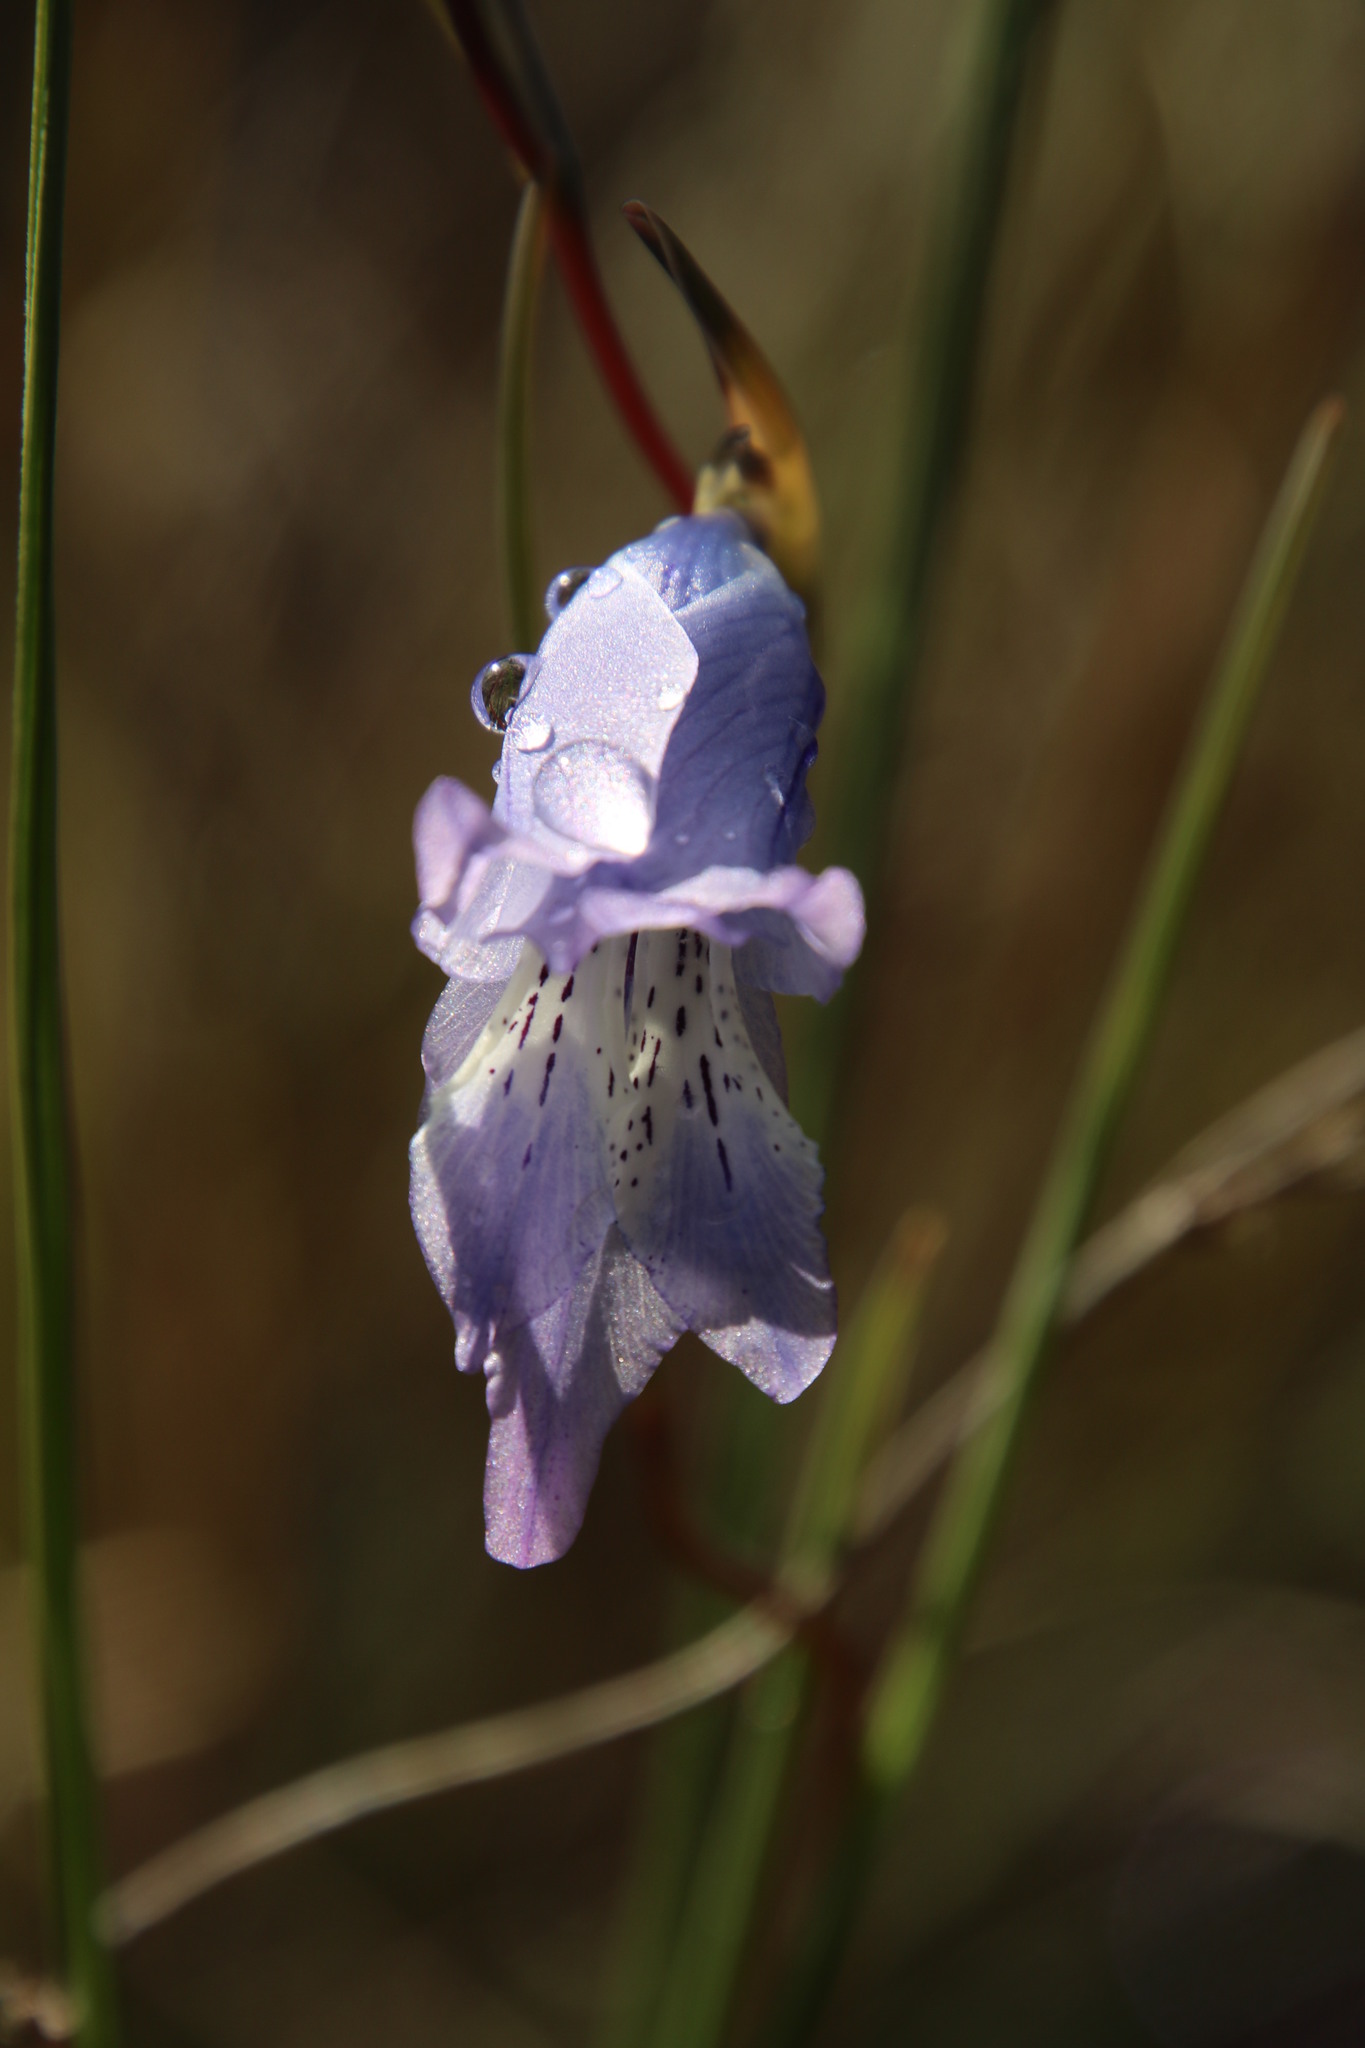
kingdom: Plantae
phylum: Tracheophyta
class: Liliopsida
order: Asparagales
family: Iridaceae
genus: Gladiolus
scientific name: Gladiolus gracilis
